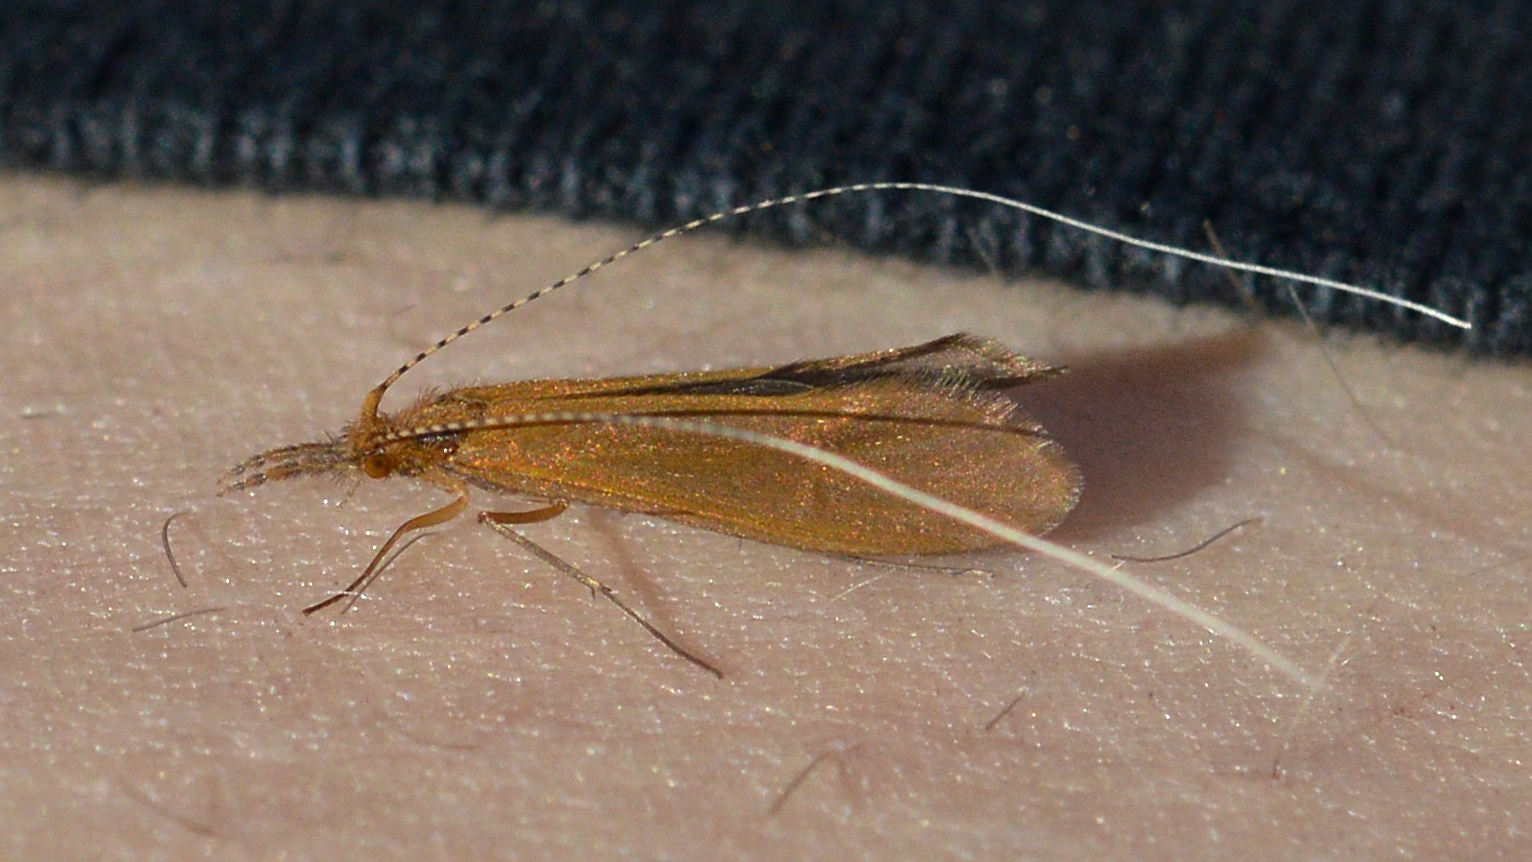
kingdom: Animalia
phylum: Arthropoda
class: Insecta
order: Trichoptera
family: Leptoceridae
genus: Triaenodes
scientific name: Triaenodes bicolor
